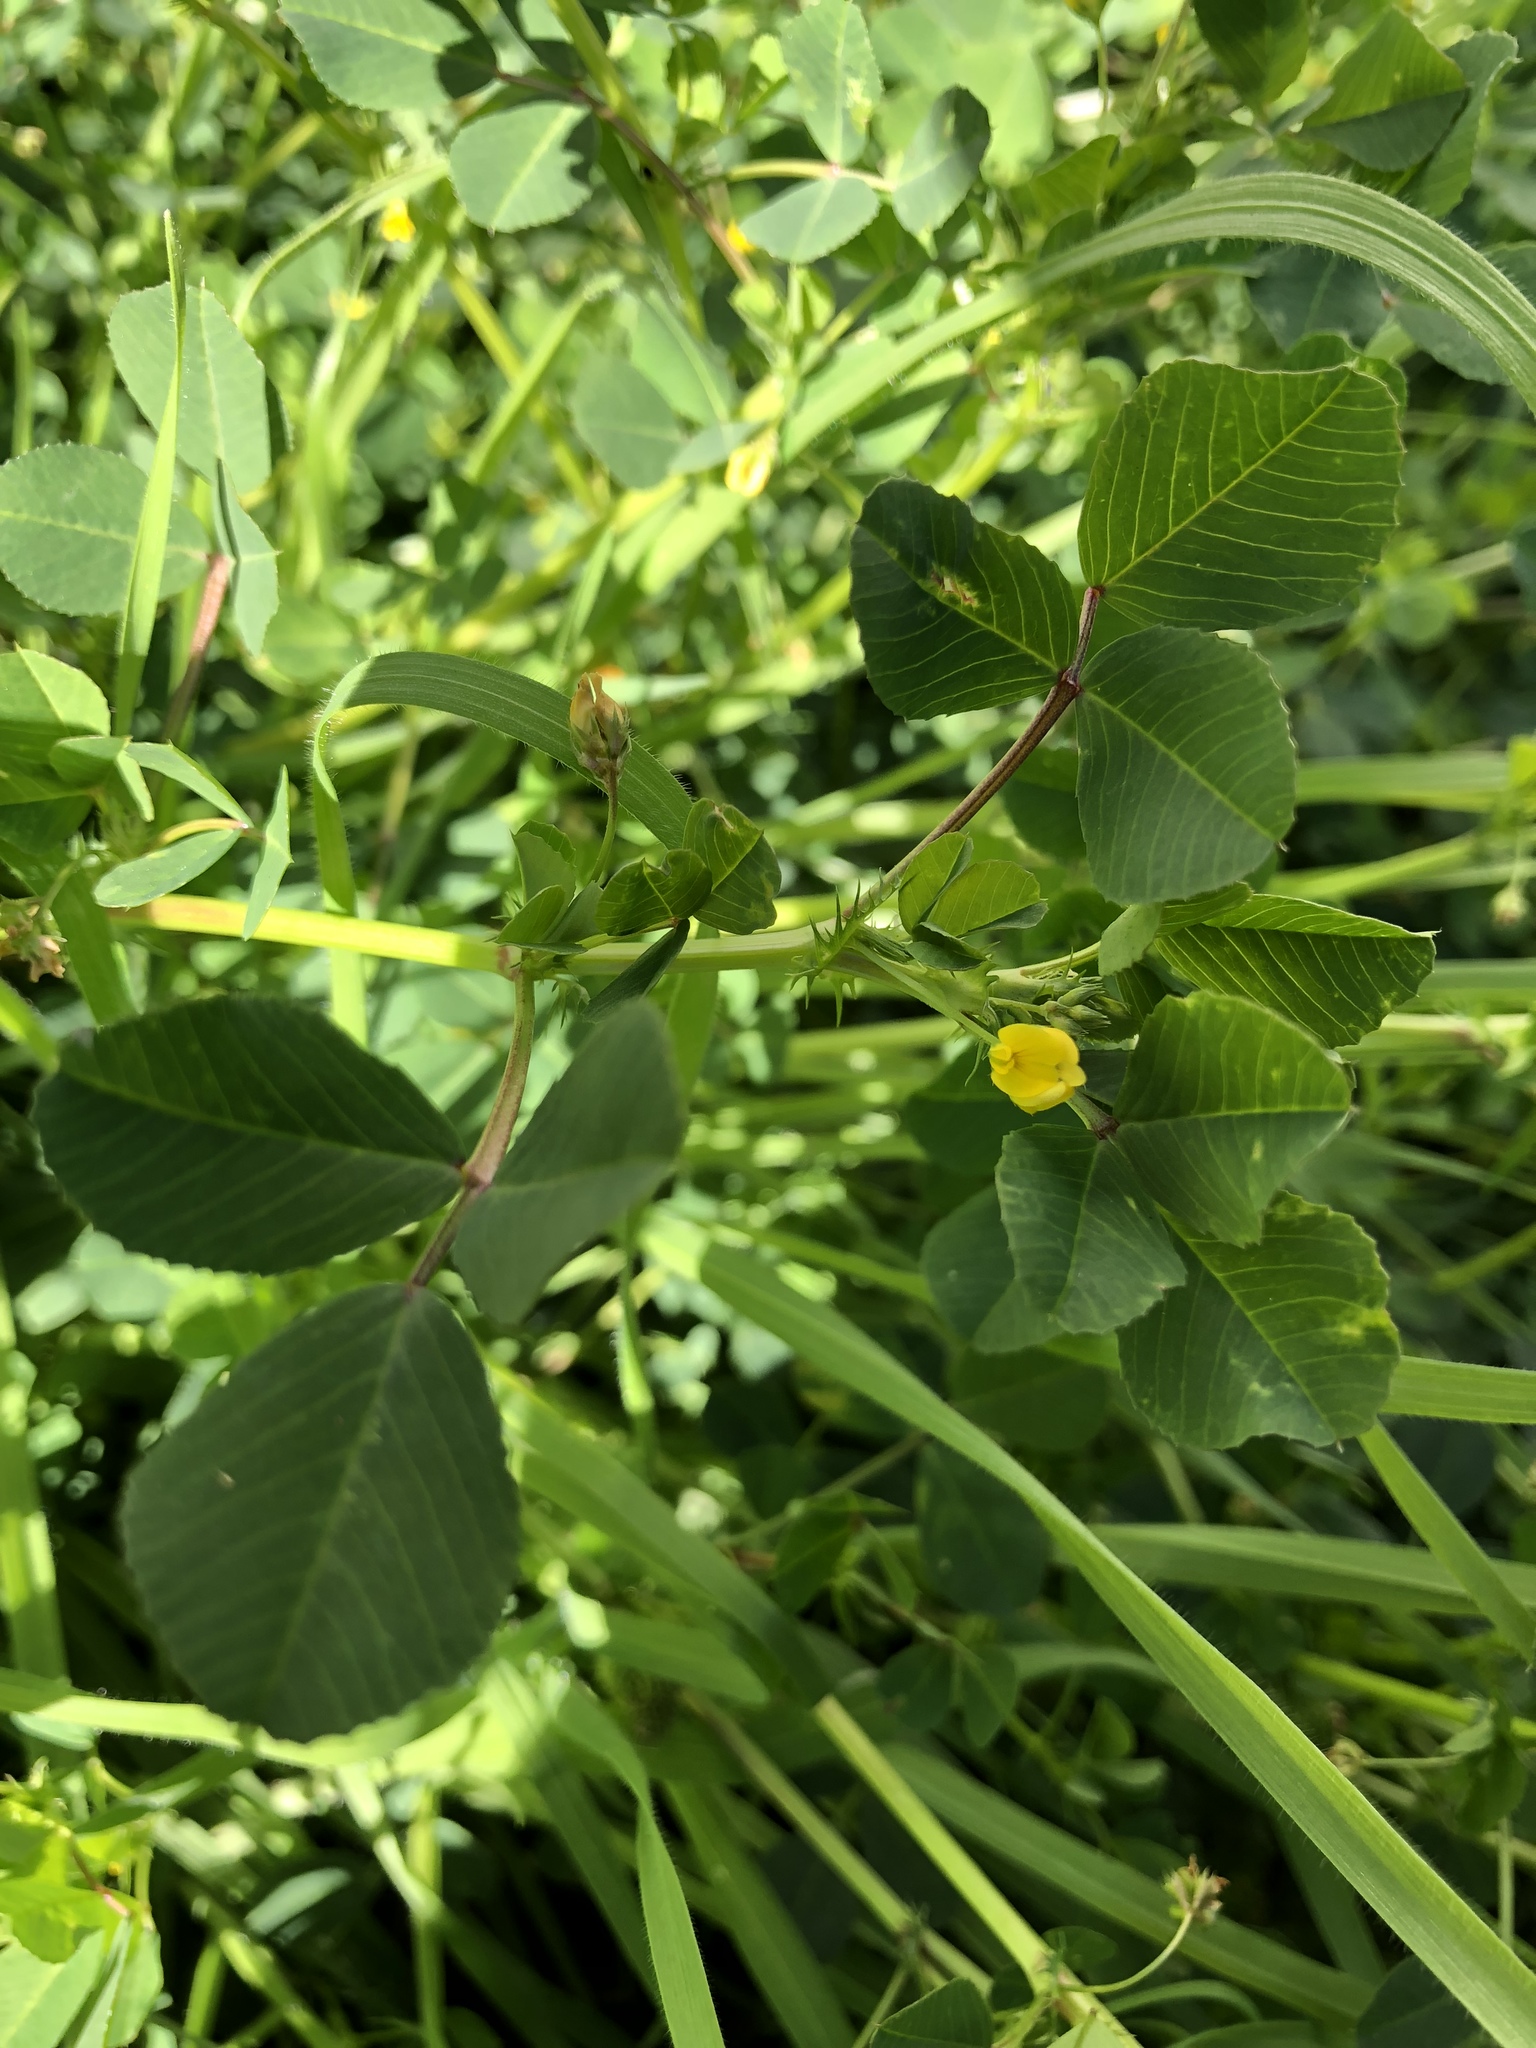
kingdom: Plantae
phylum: Tracheophyta
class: Magnoliopsida
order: Fabales
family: Fabaceae
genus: Medicago
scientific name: Medicago polymorpha
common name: Burclover
